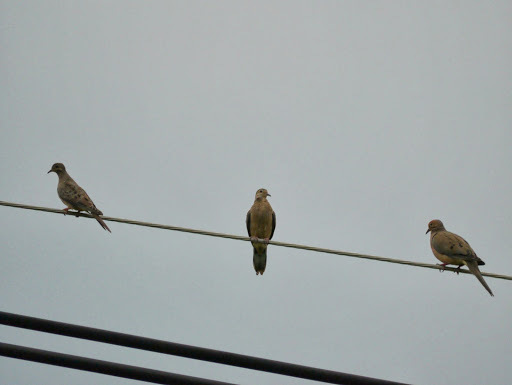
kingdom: Animalia
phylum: Chordata
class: Aves
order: Columbiformes
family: Columbidae
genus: Zenaida
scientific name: Zenaida macroura
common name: Mourning dove
